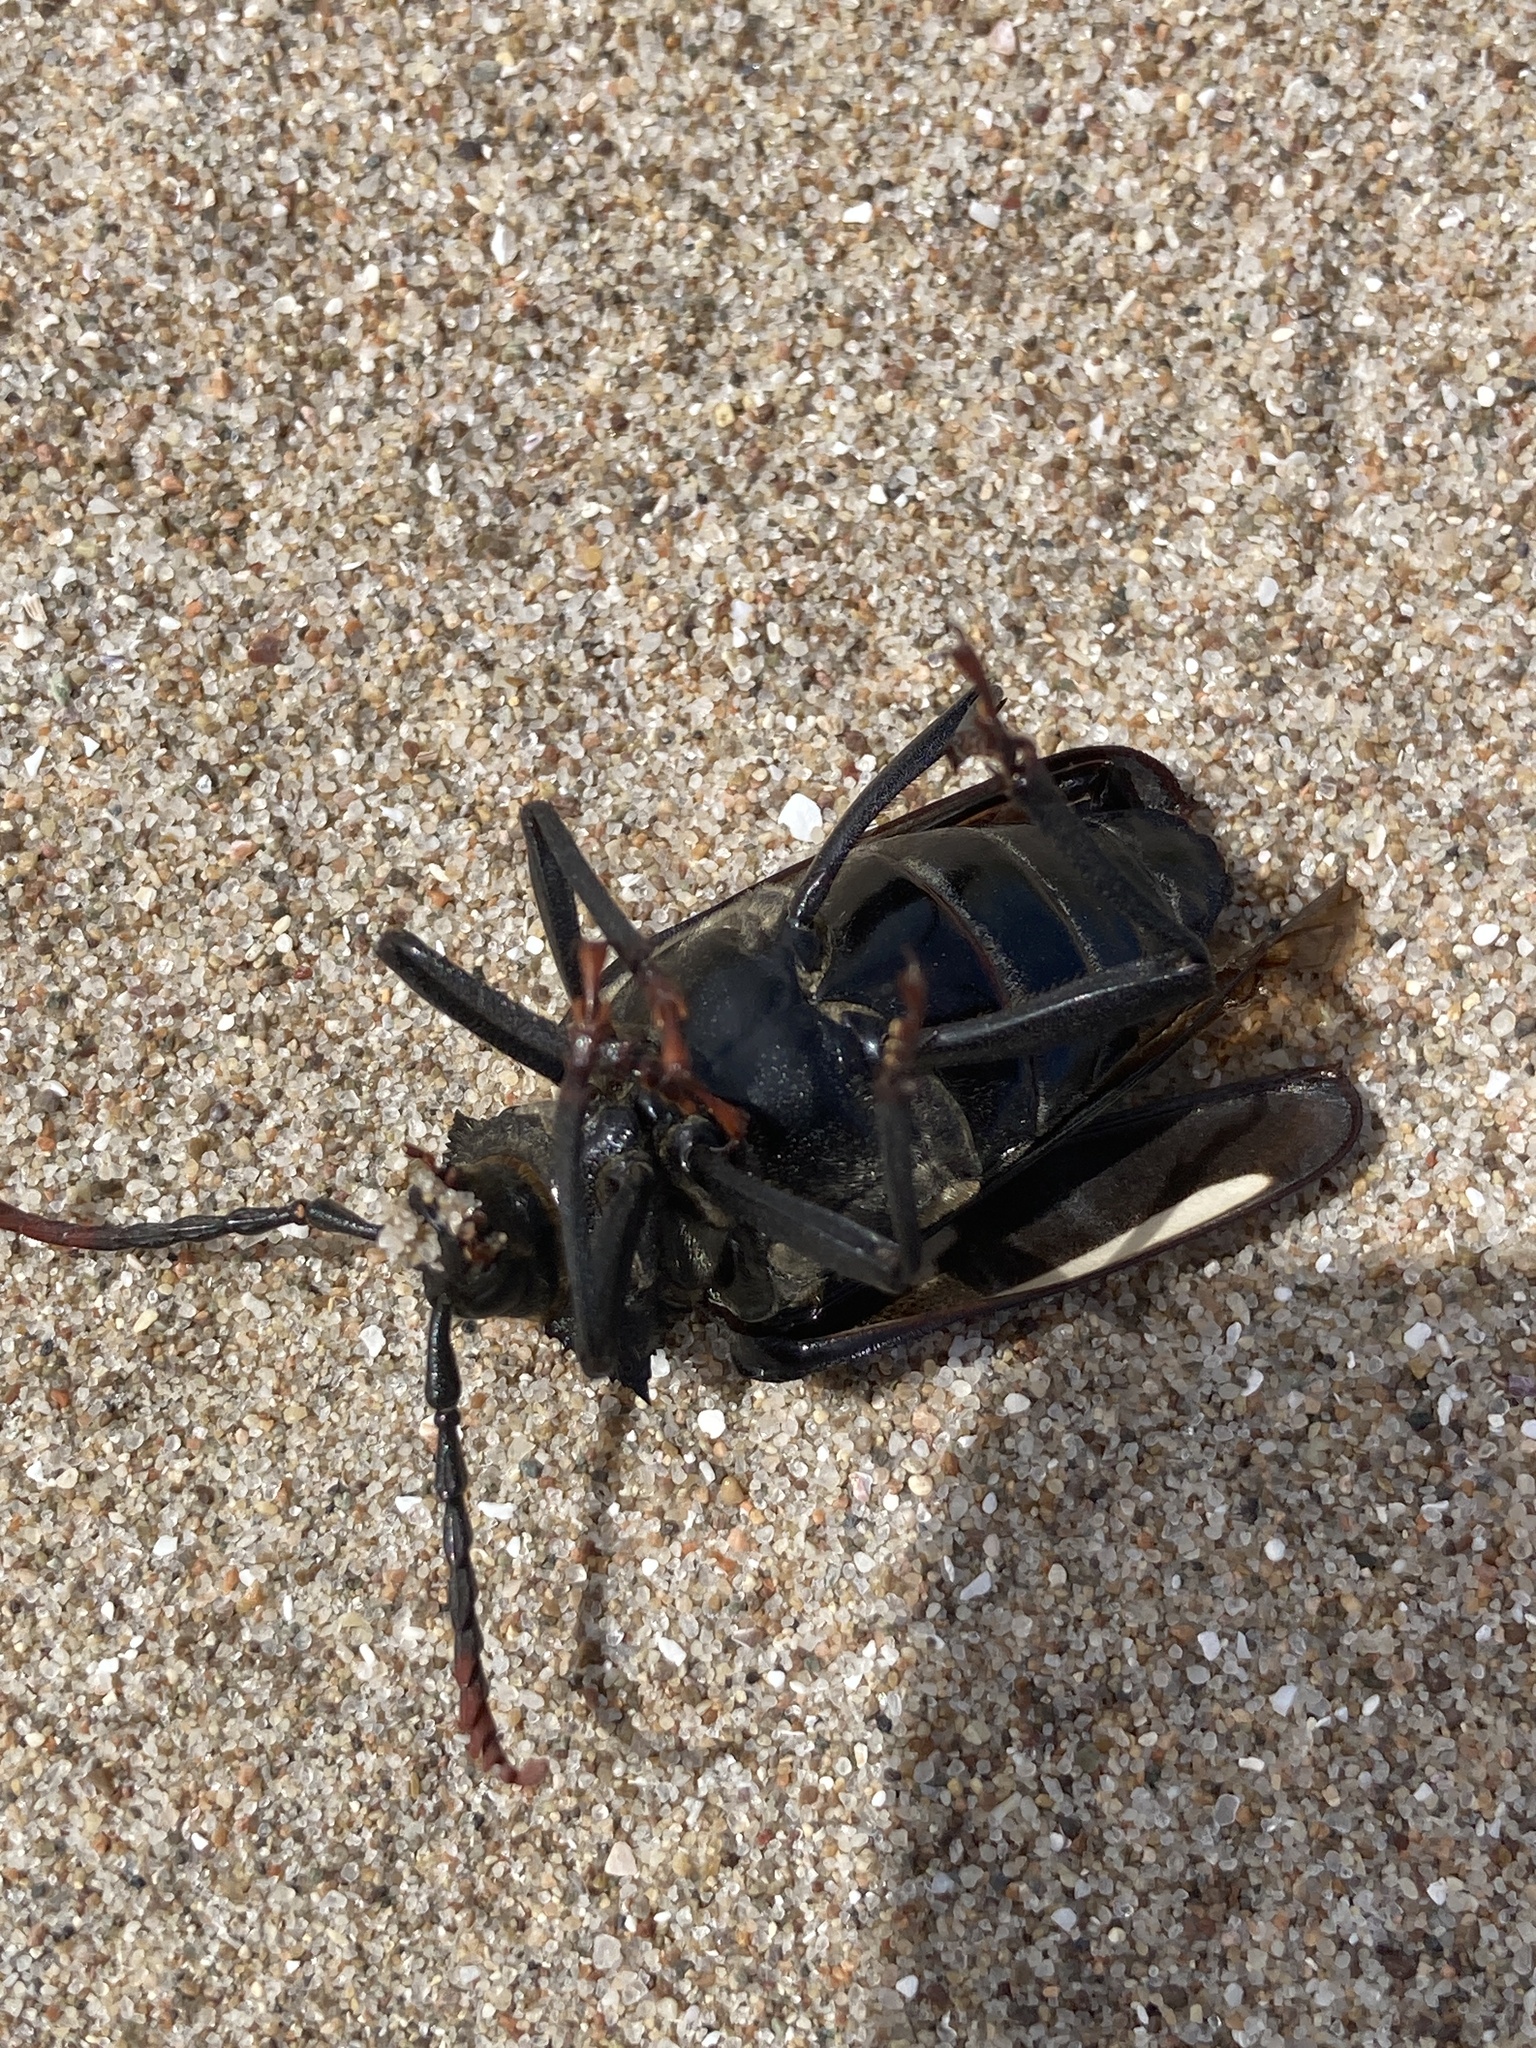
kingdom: Animalia
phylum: Arthropoda
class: Insecta
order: Coleoptera
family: Cerambycidae
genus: Calocomus
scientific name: Calocomus desmarestii
